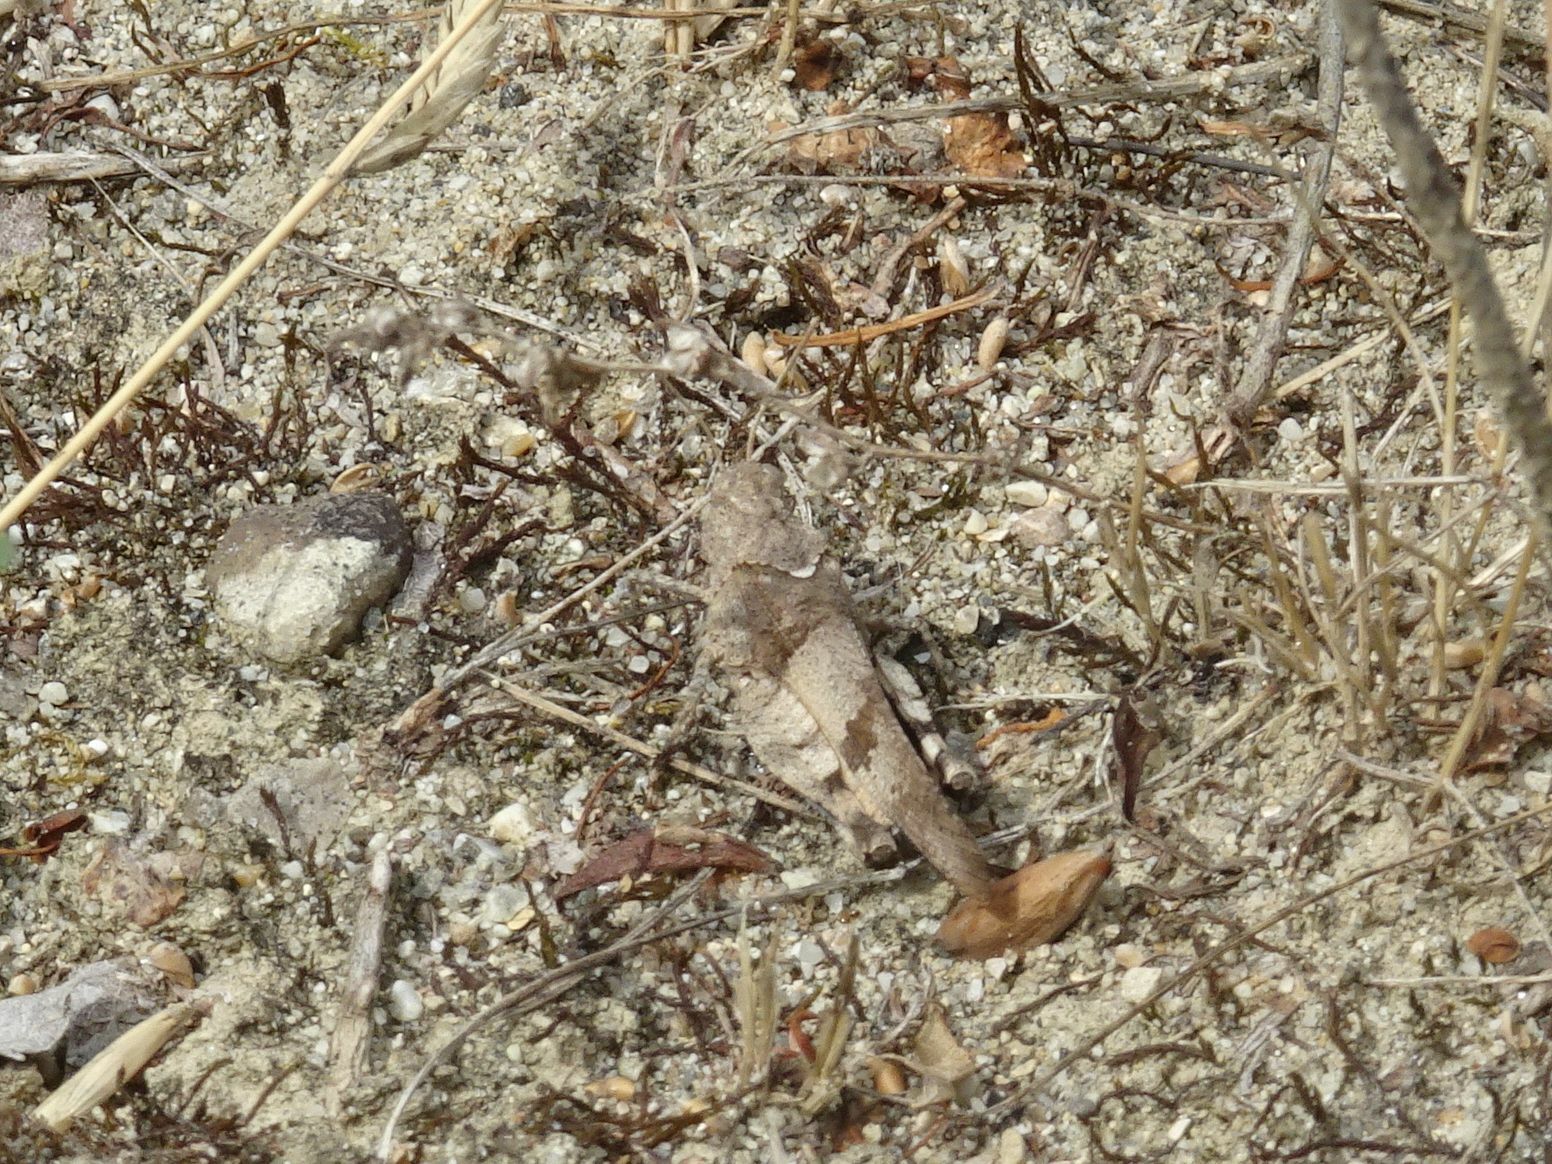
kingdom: Animalia
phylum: Arthropoda
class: Insecta
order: Orthoptera
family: Acrididae
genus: Oedipoda
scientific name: Oedipoda caerulescens
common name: Blue-winged grasshopper
